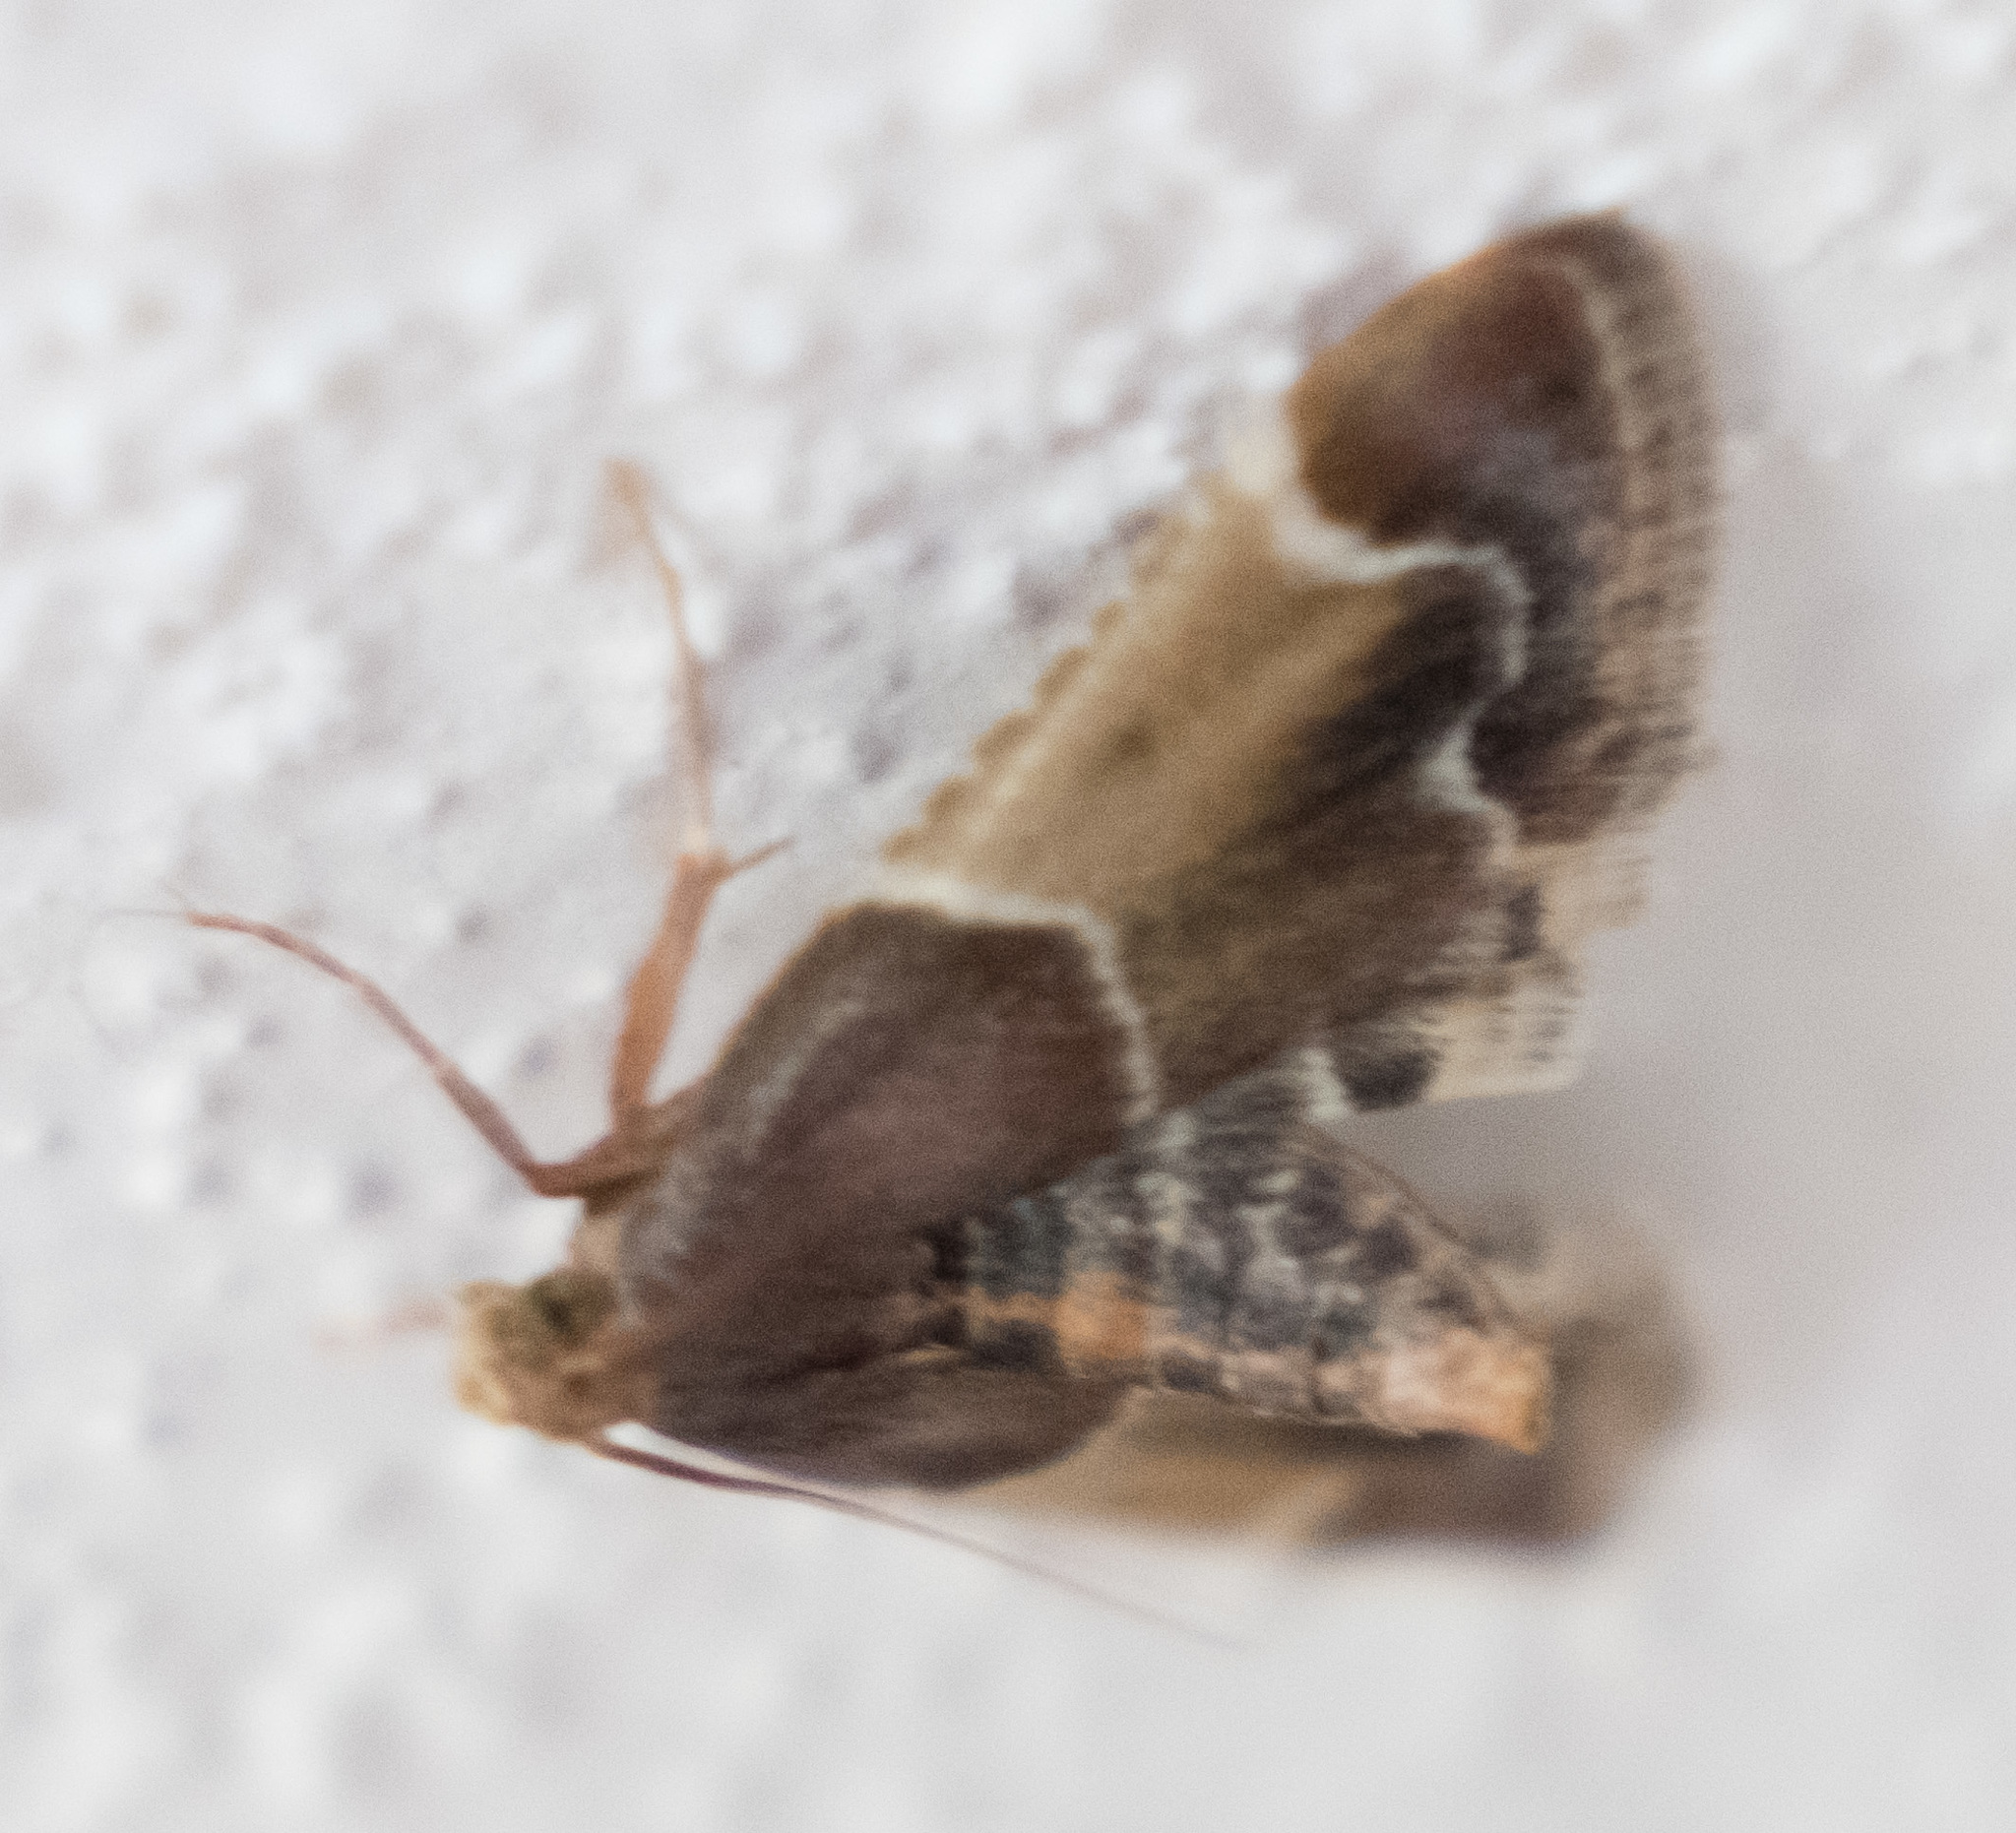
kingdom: Animalia
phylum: Arthropoda
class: Insecta
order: Lepidoptera
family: Pyralidae
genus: Pyralis
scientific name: Pyralis farinalis
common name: Meal moth
